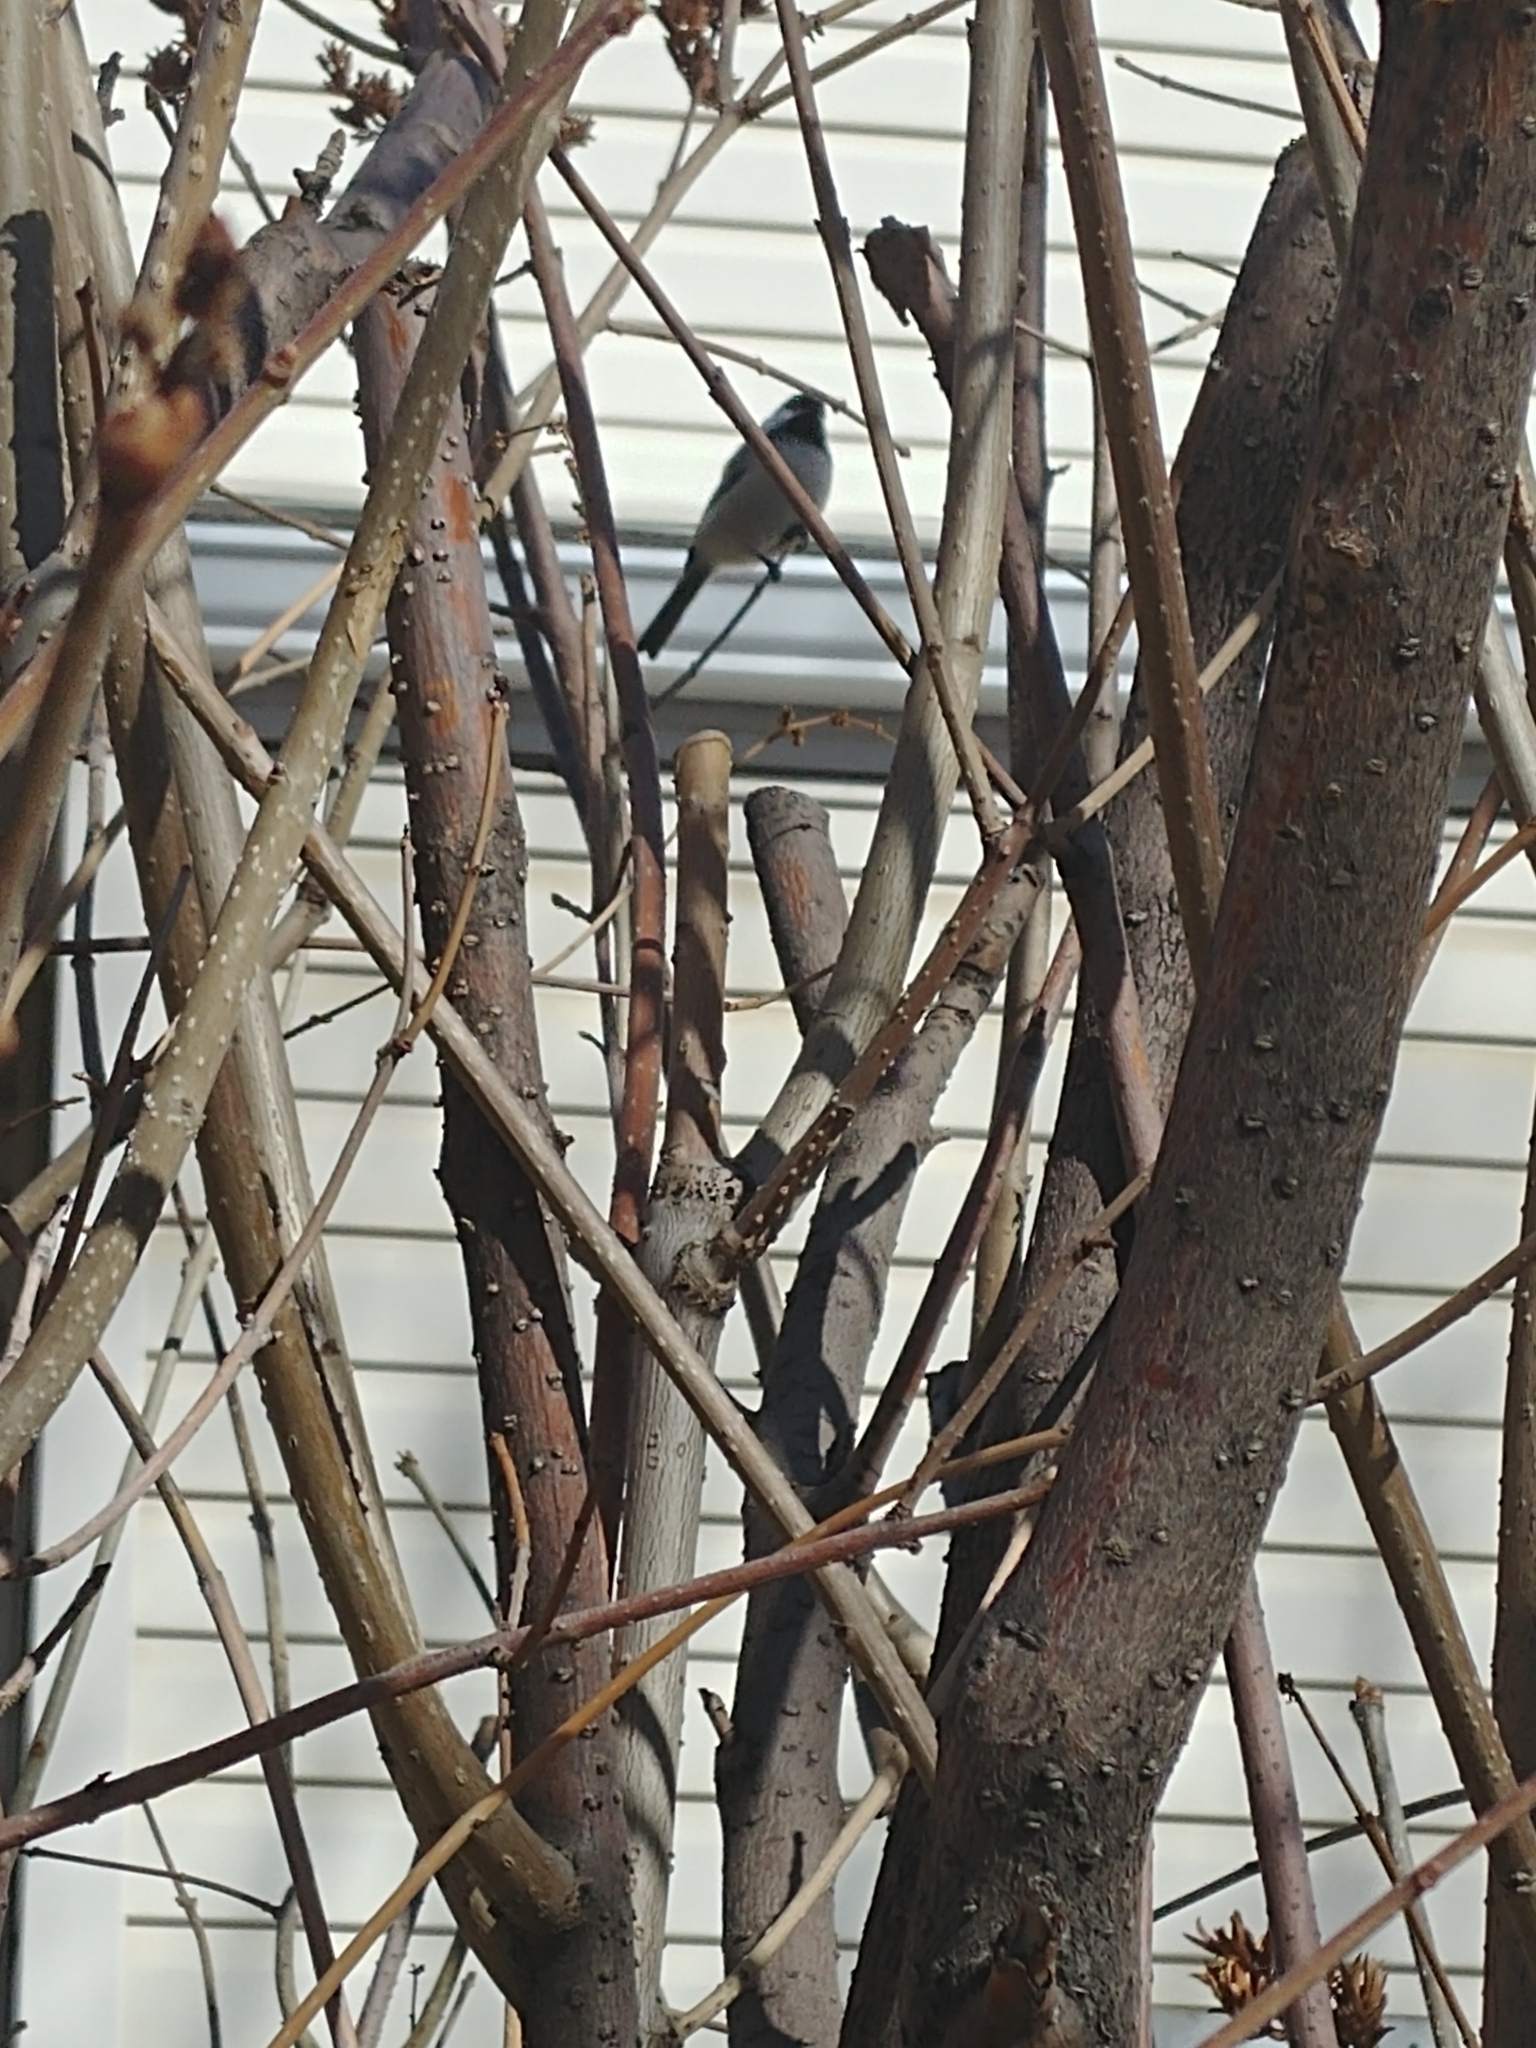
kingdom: Animalia
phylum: Chordata
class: Aves
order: Passeriformes
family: Paridae
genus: Poecile
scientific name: Poecile atricapillus
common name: Black-capped chickadee
